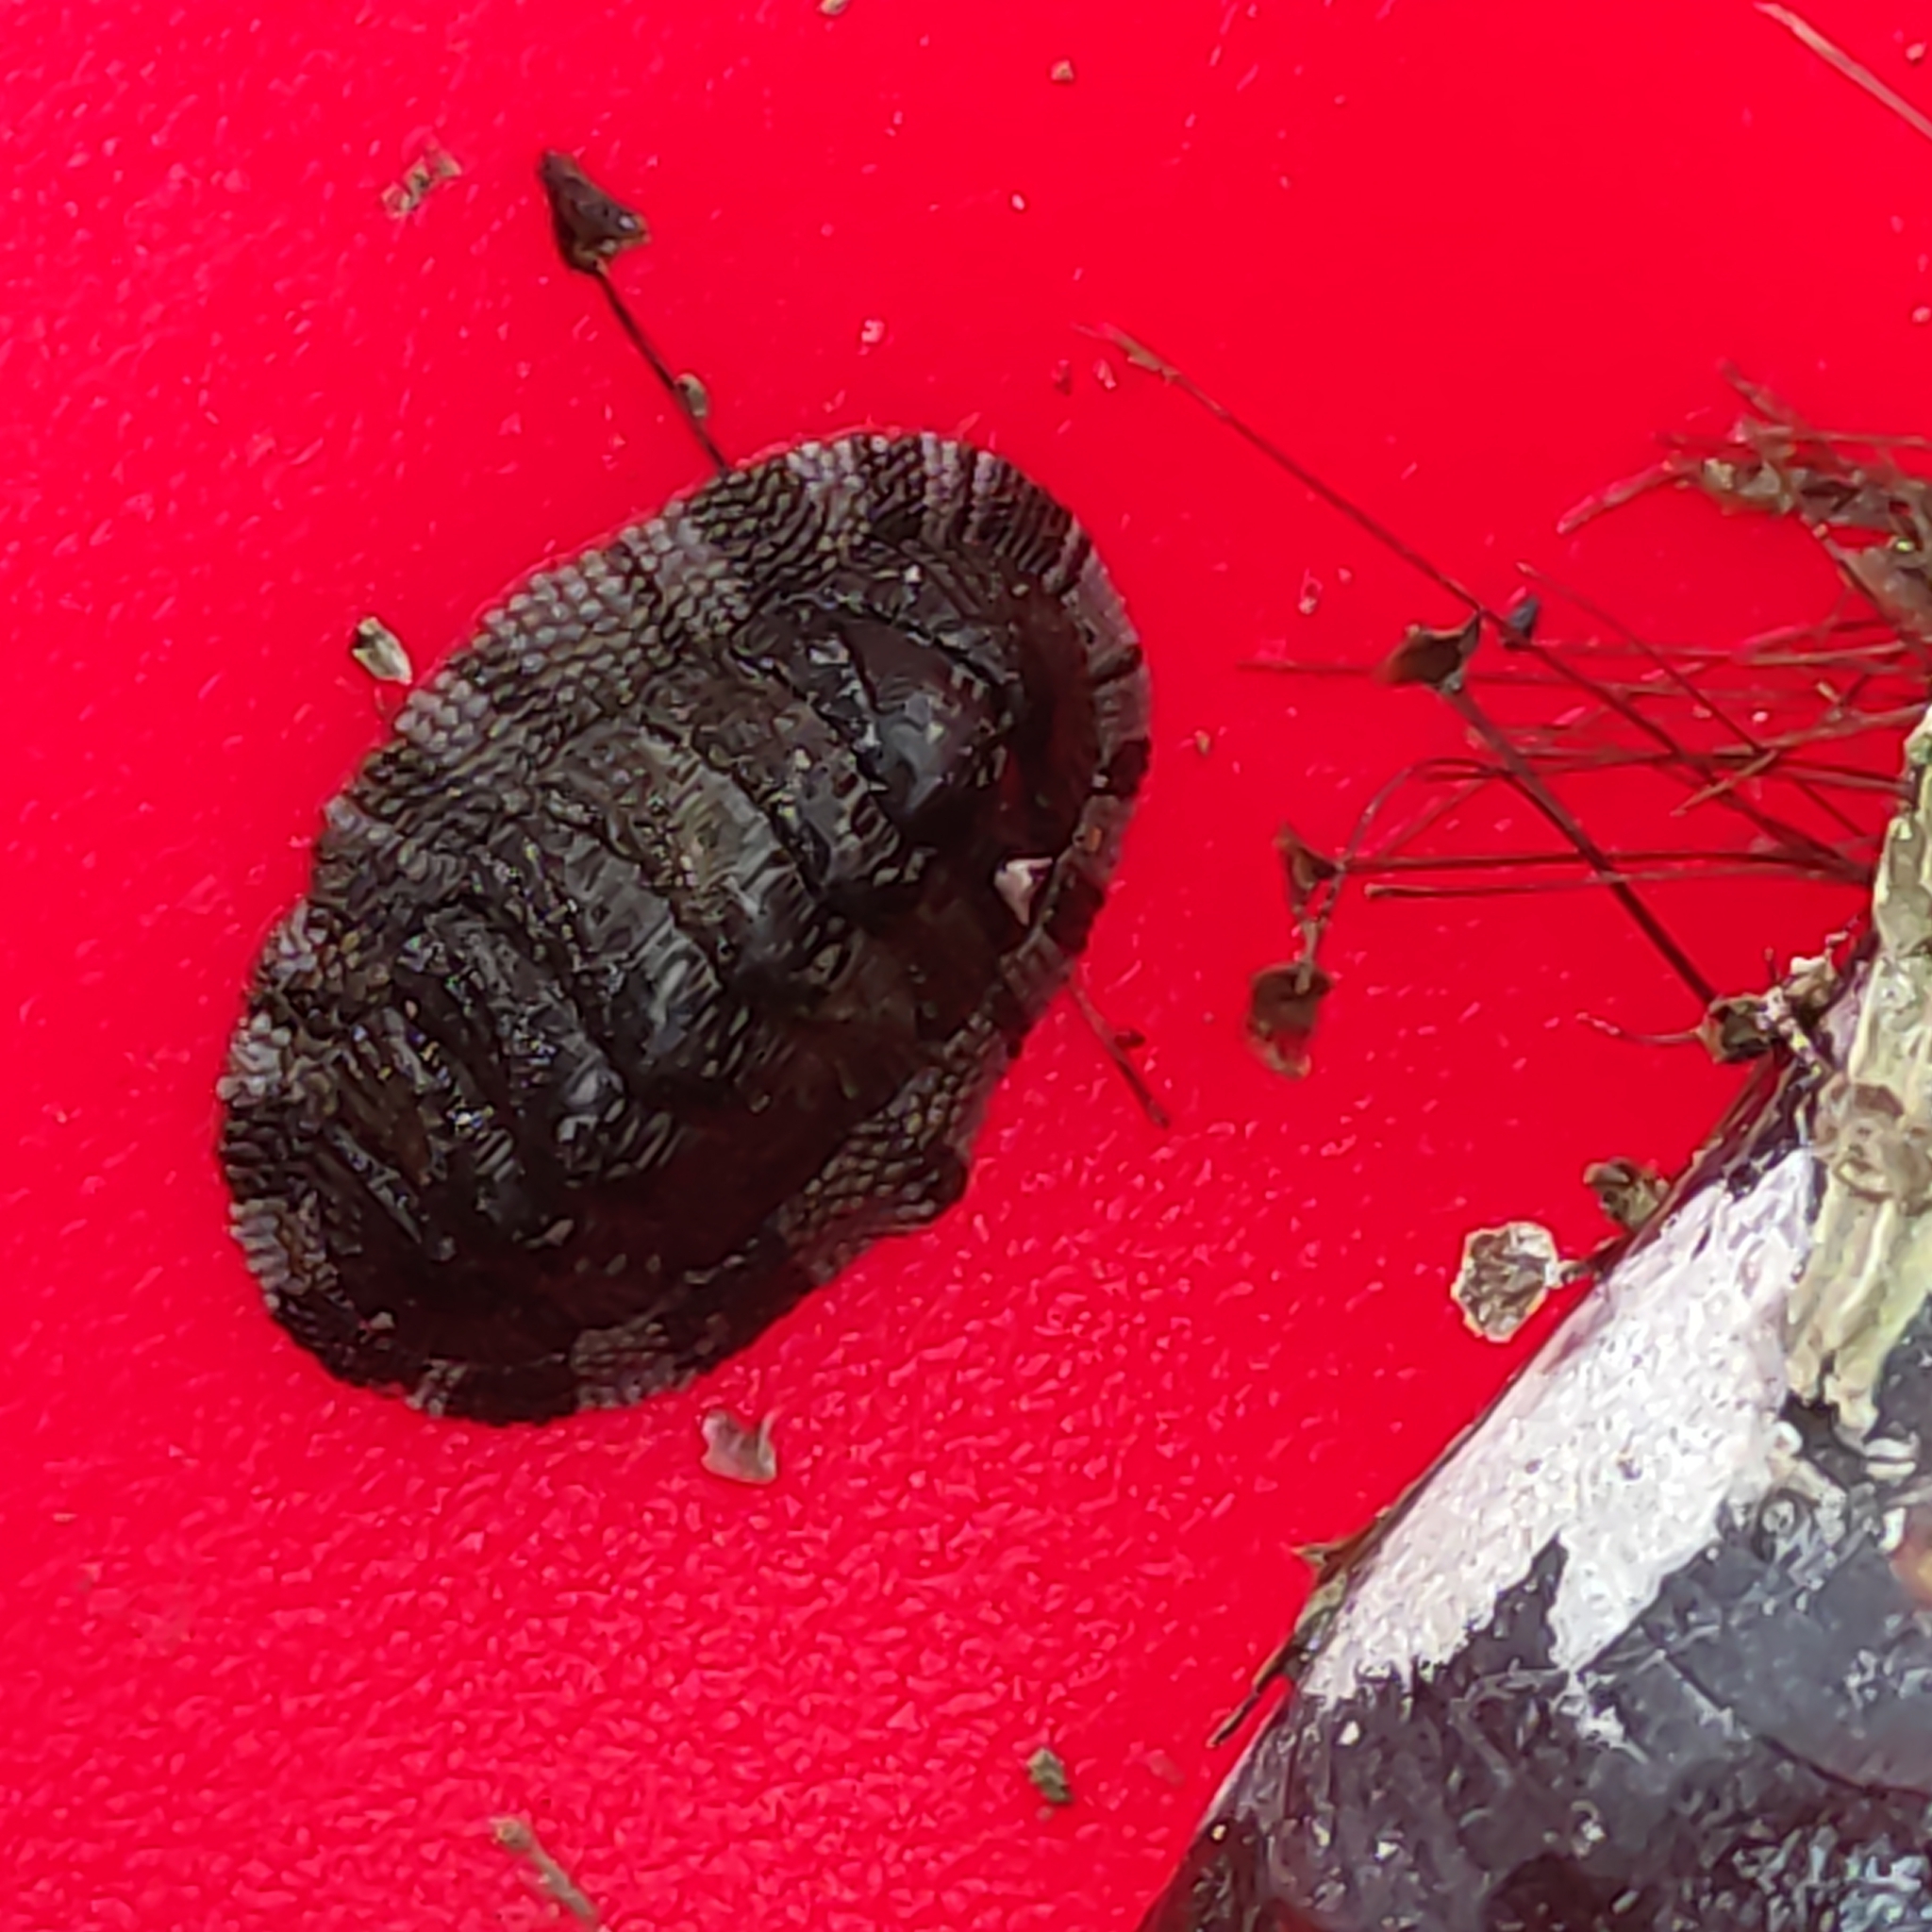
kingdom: Animalia
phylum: Mollusca
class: Polyplacophora
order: Chitonida
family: Chitonidae
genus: Sypharochiton
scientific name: Sypharochiton pelliserpentis
